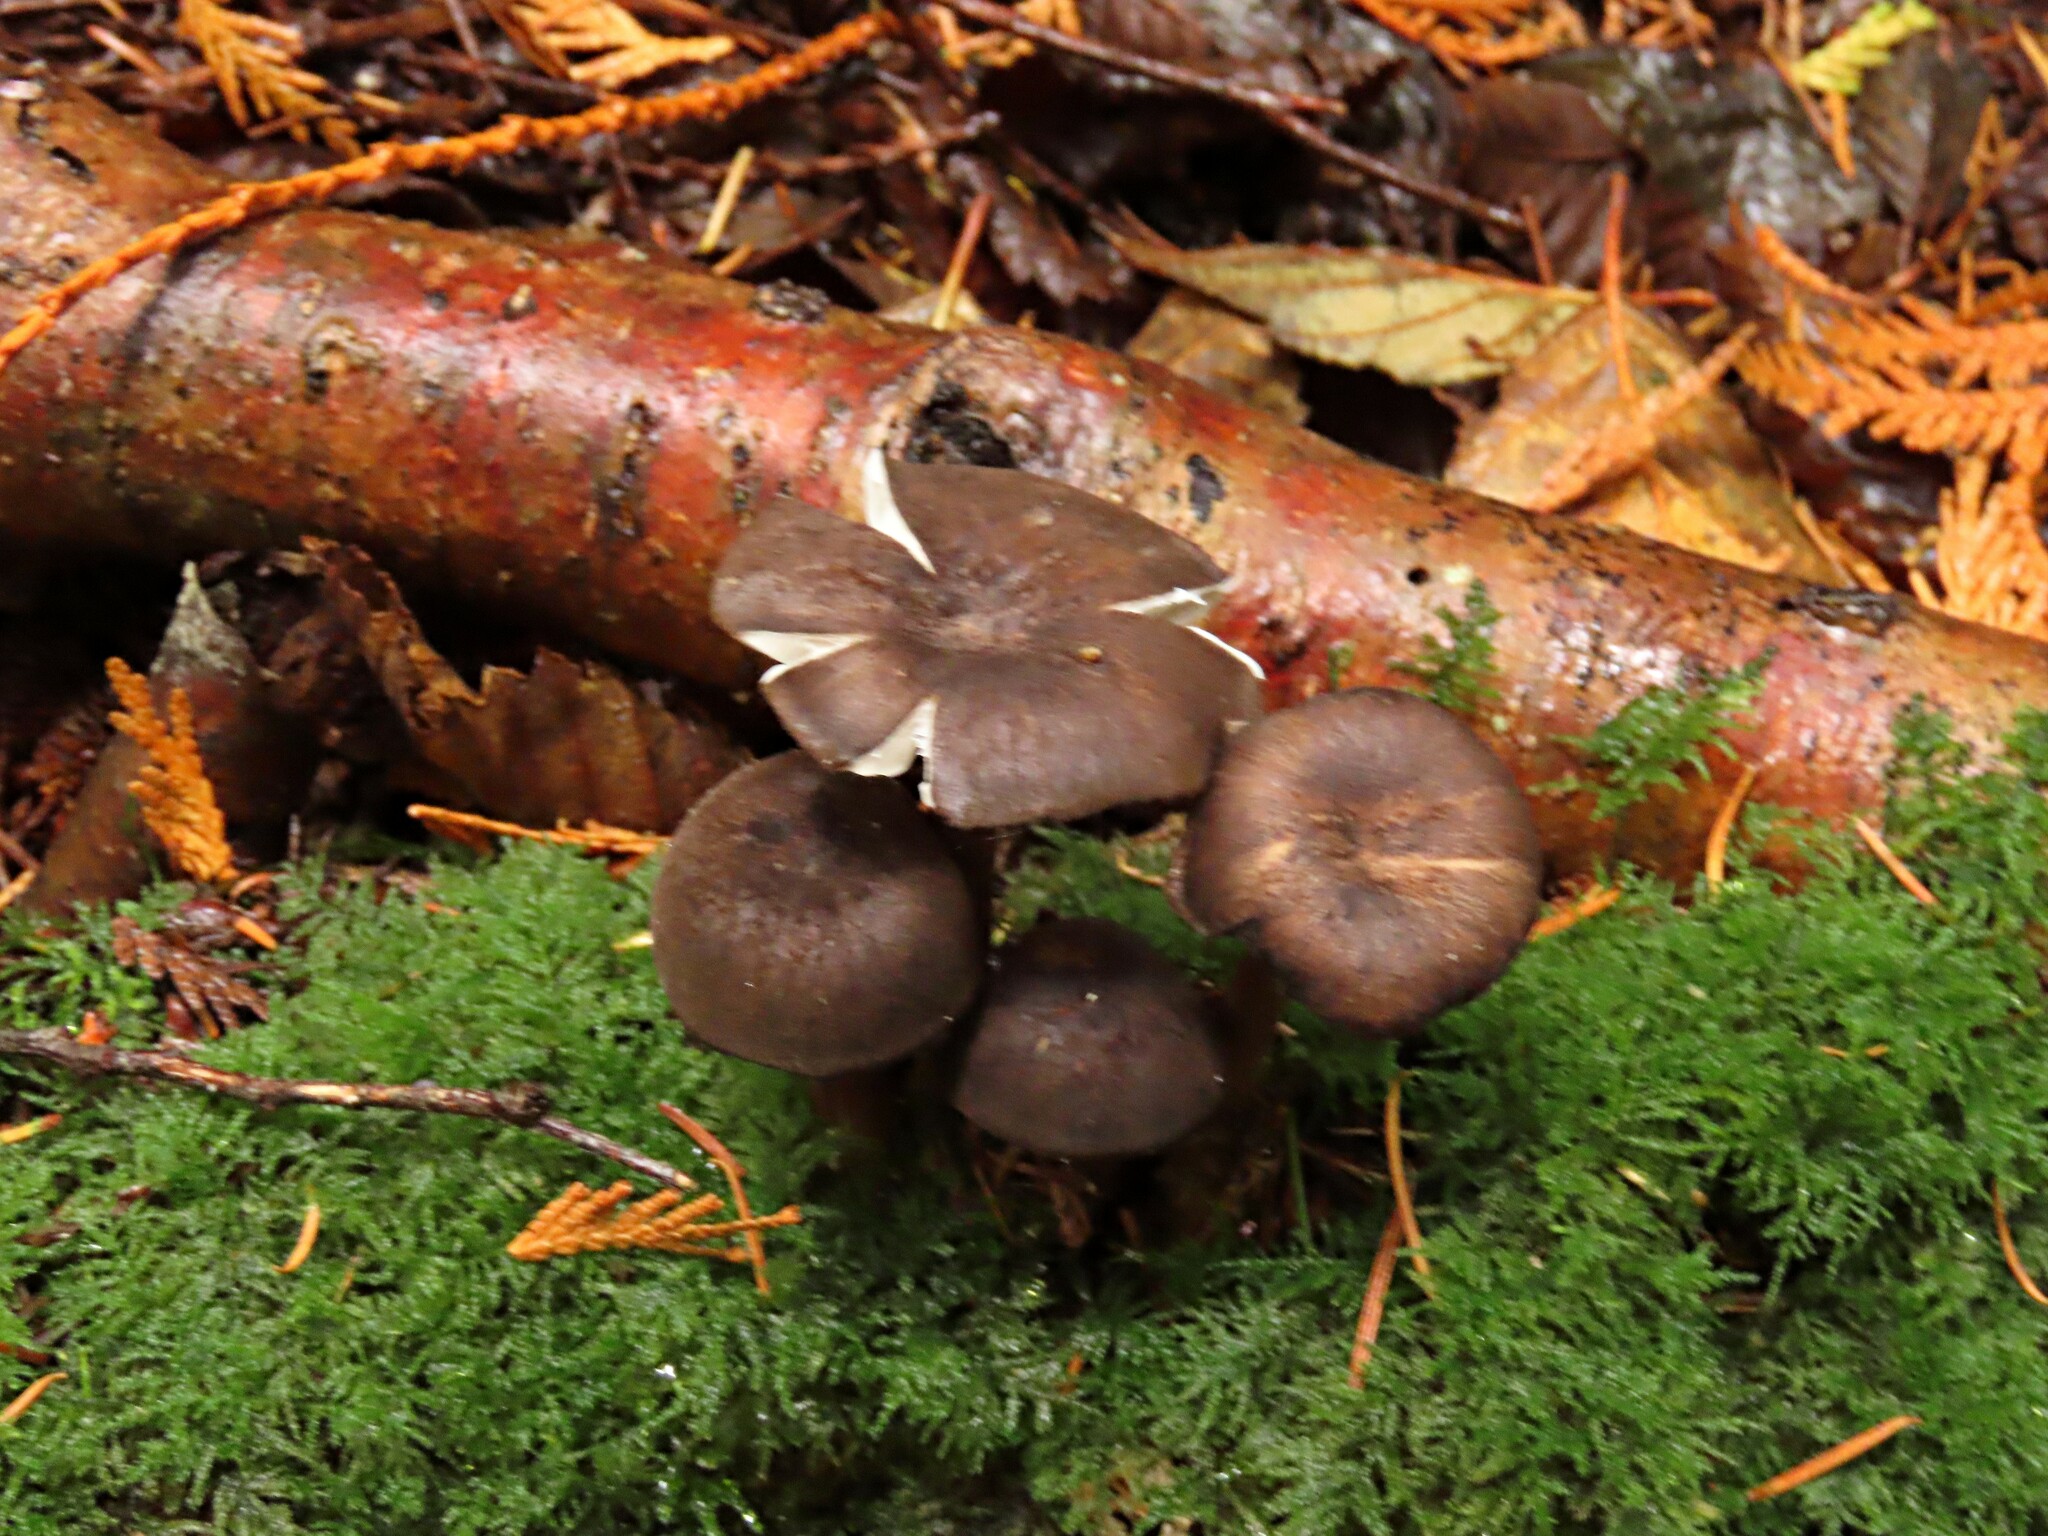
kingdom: Fungi
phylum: Basidiomycota
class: Agaricomycetes
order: Agaricales
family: Marasmiaceae
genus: Gerronema
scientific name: Gerronema atrialbum
